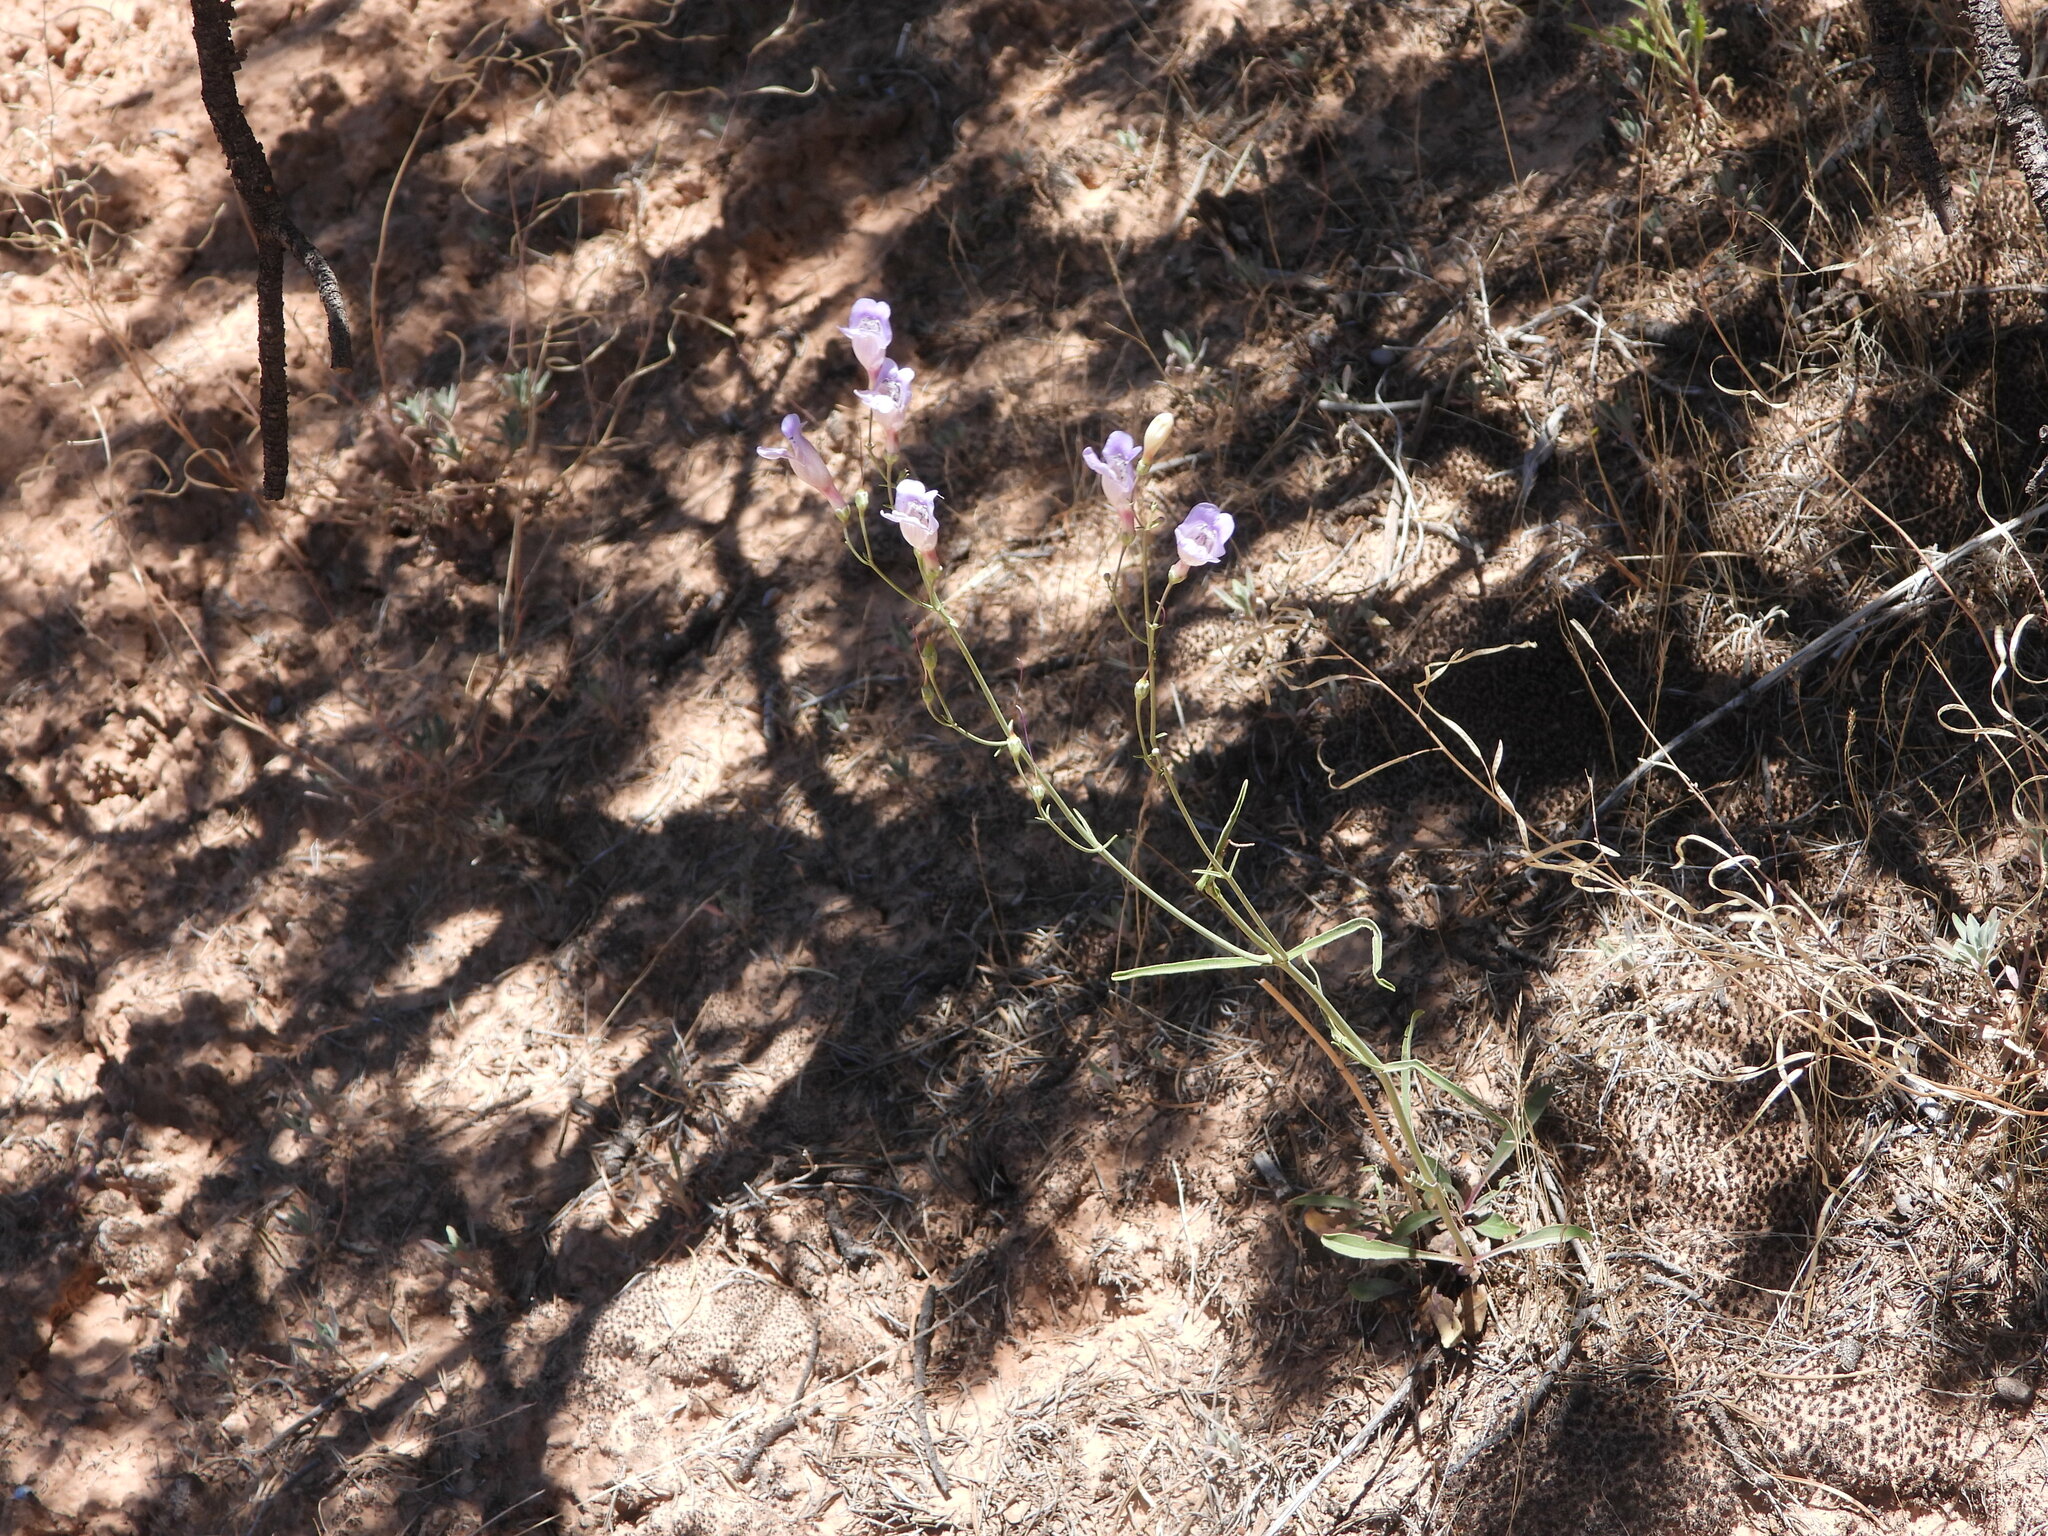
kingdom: Plantae
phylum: Tracheophyta
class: Magnoliopsida
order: Lamiales
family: Plantaginaceae
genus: Penstemon
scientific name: Penstemon comarrhenus
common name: Dusty penstemon
